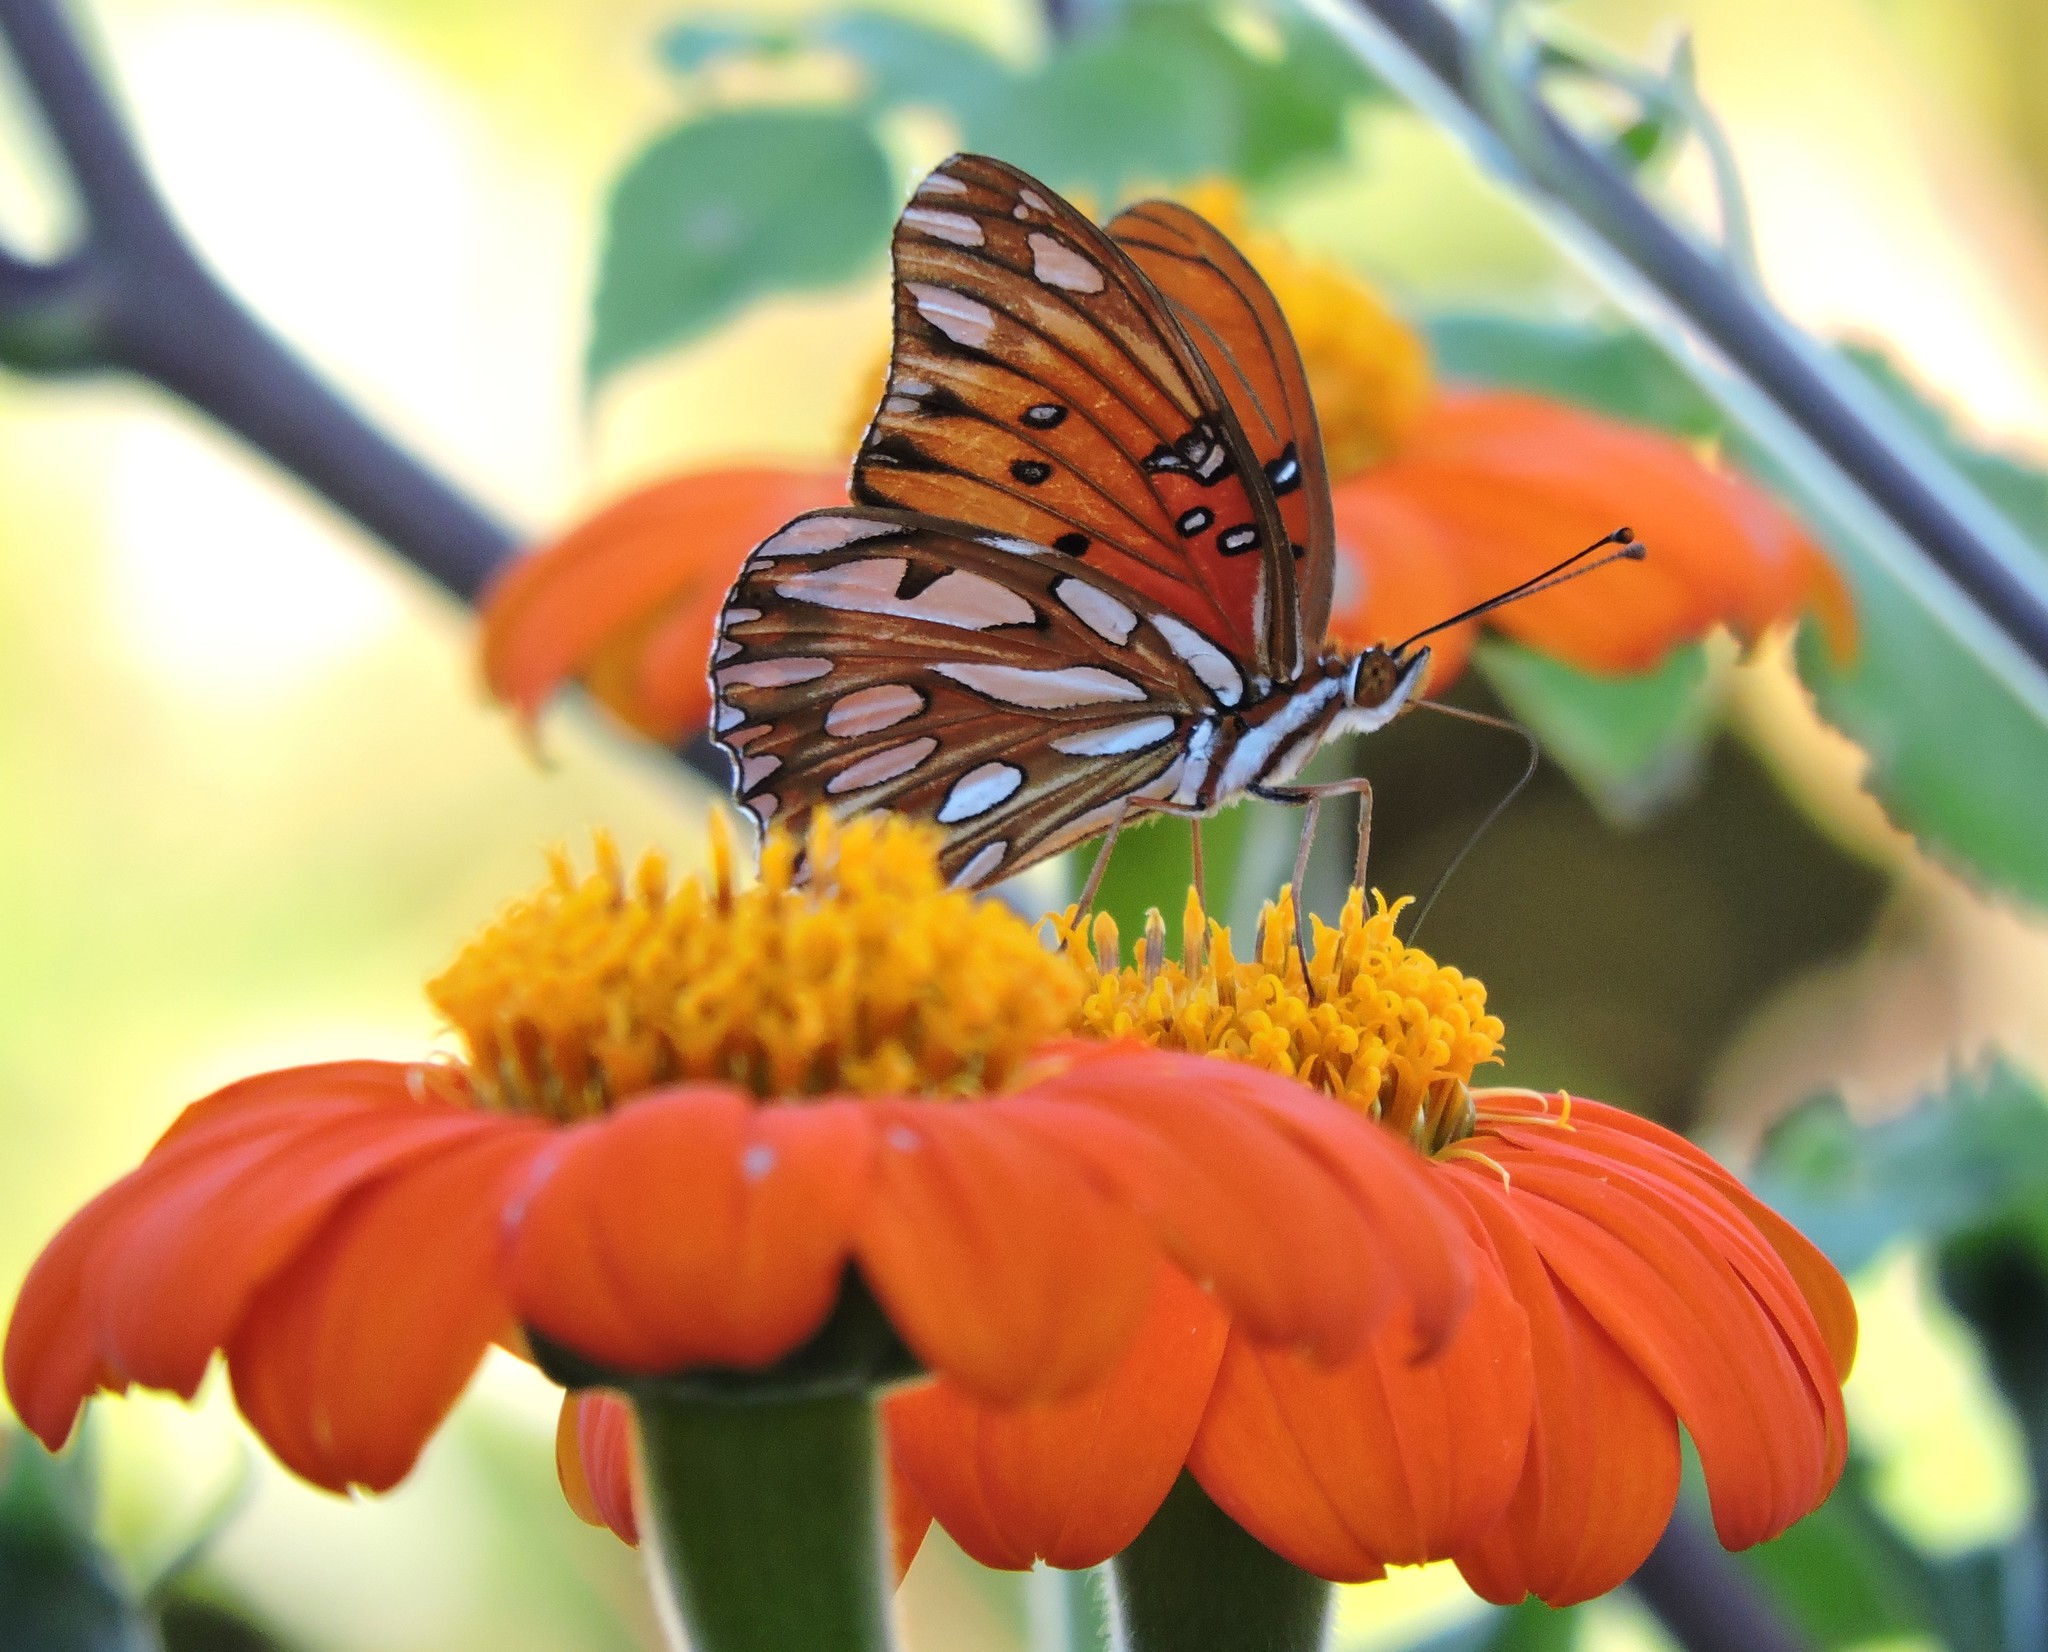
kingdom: Animalia
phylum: Arthropoda
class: Insecta
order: Lepidoptera
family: Nymphalidae
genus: Dione
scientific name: Dione vanillae
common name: Gulf fritillary
